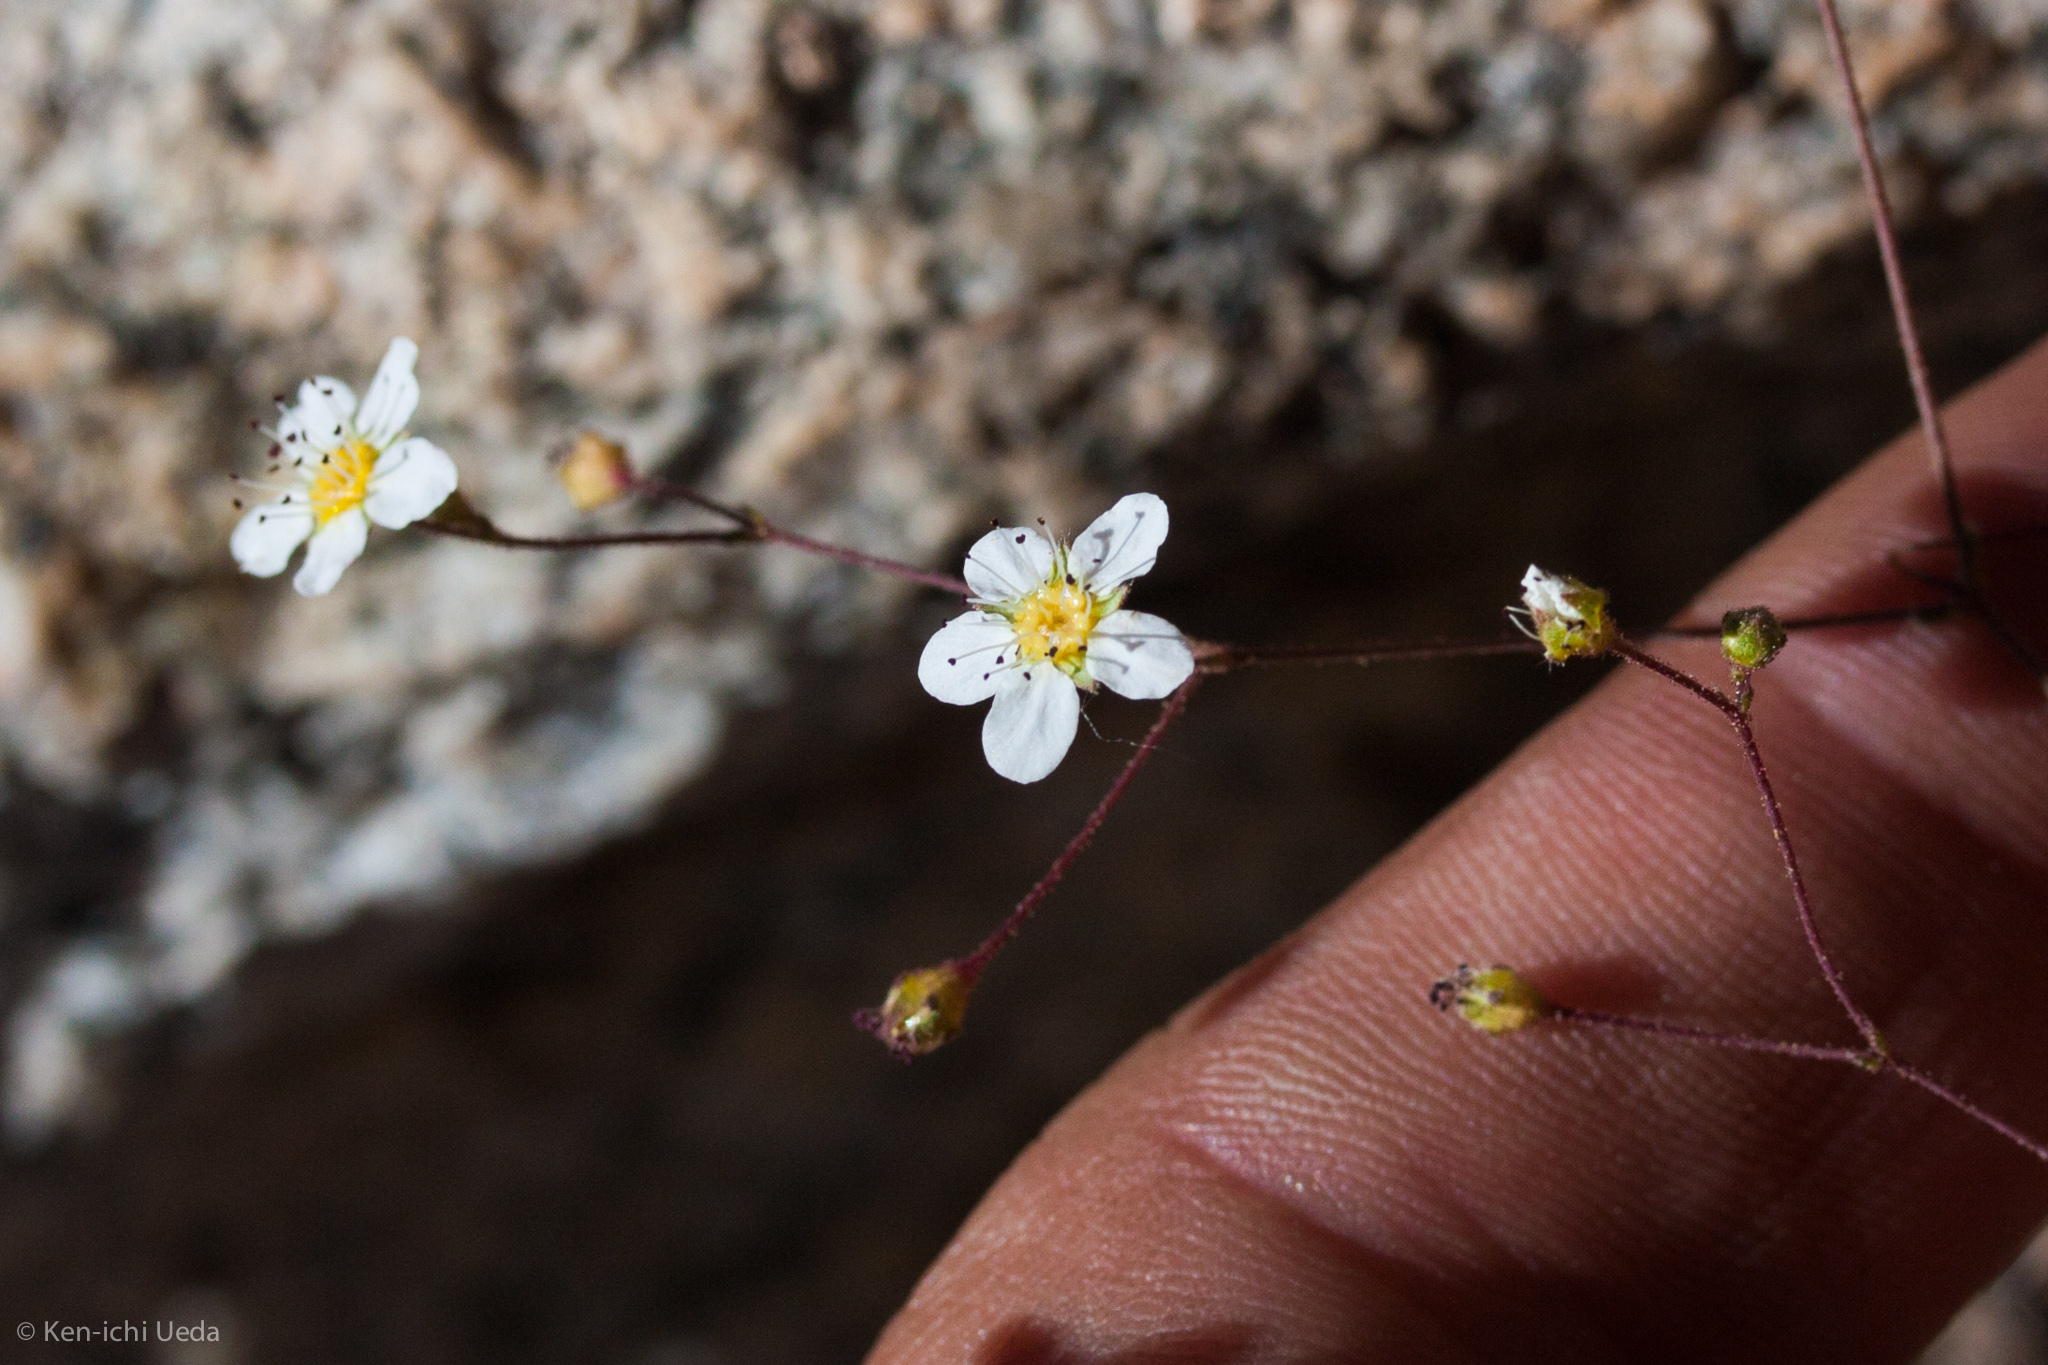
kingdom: Plantae
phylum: Tracheophyta
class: Magnoliopsida
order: Rosales
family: Rosaceae
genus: Potentilla
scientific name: Potentilla santolinoides
